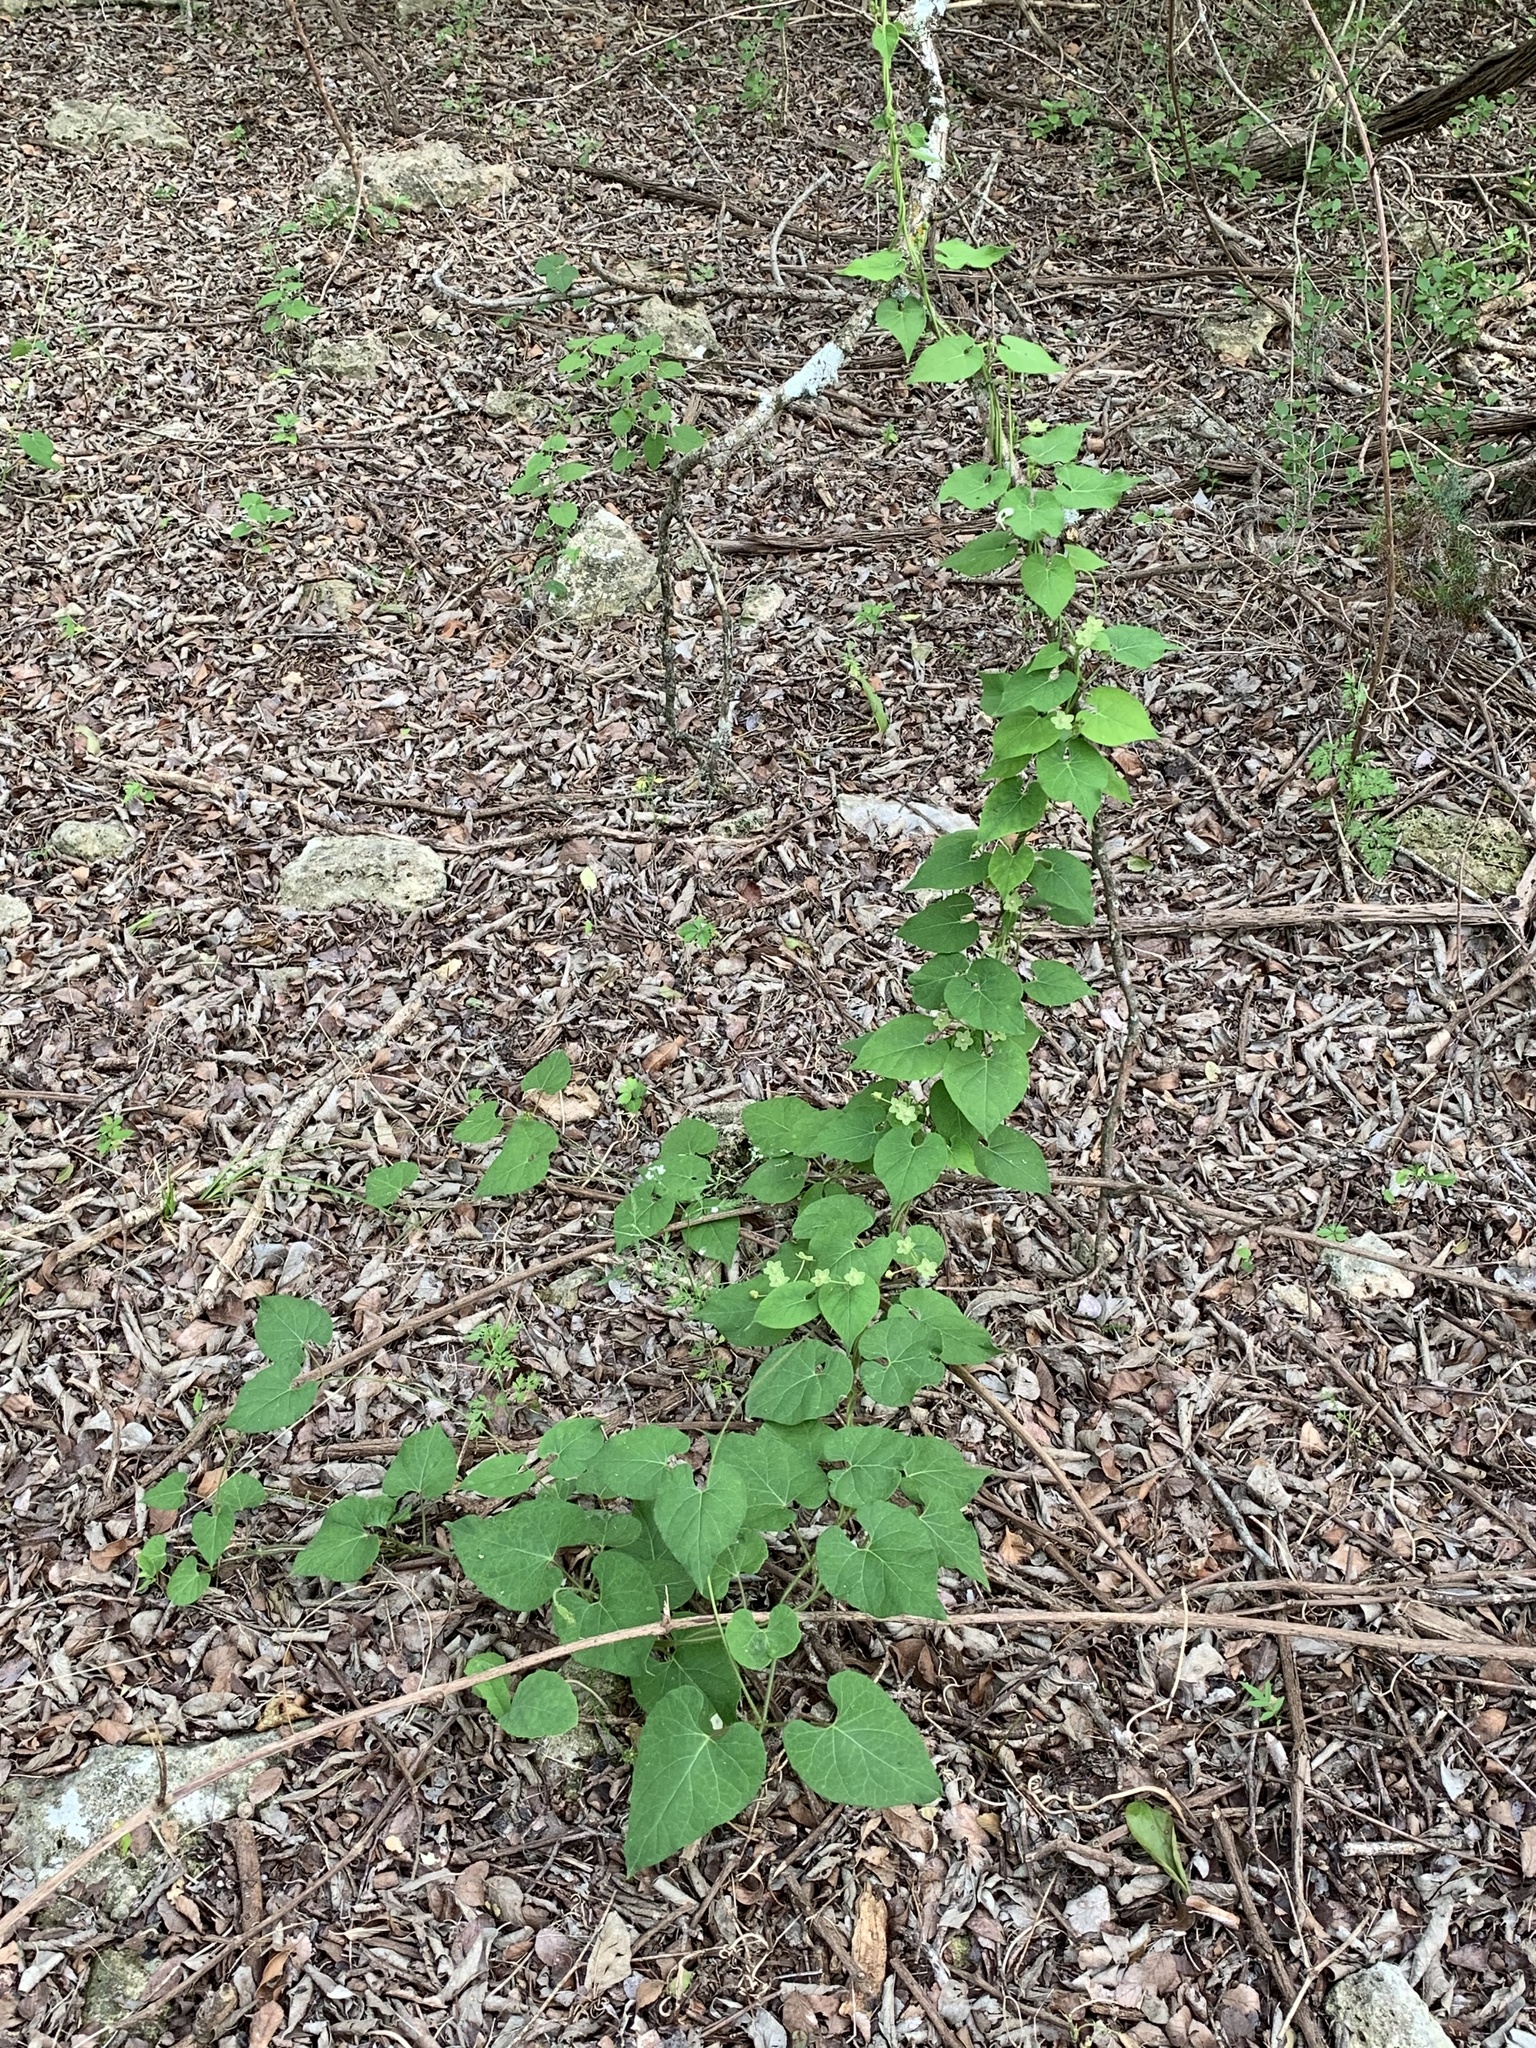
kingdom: Plantae
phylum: Tracheophyta
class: Magnoliopsida
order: Gentianales
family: Apocynaceae
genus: Dictyanthus
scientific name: Dictyanthus reticulatus
